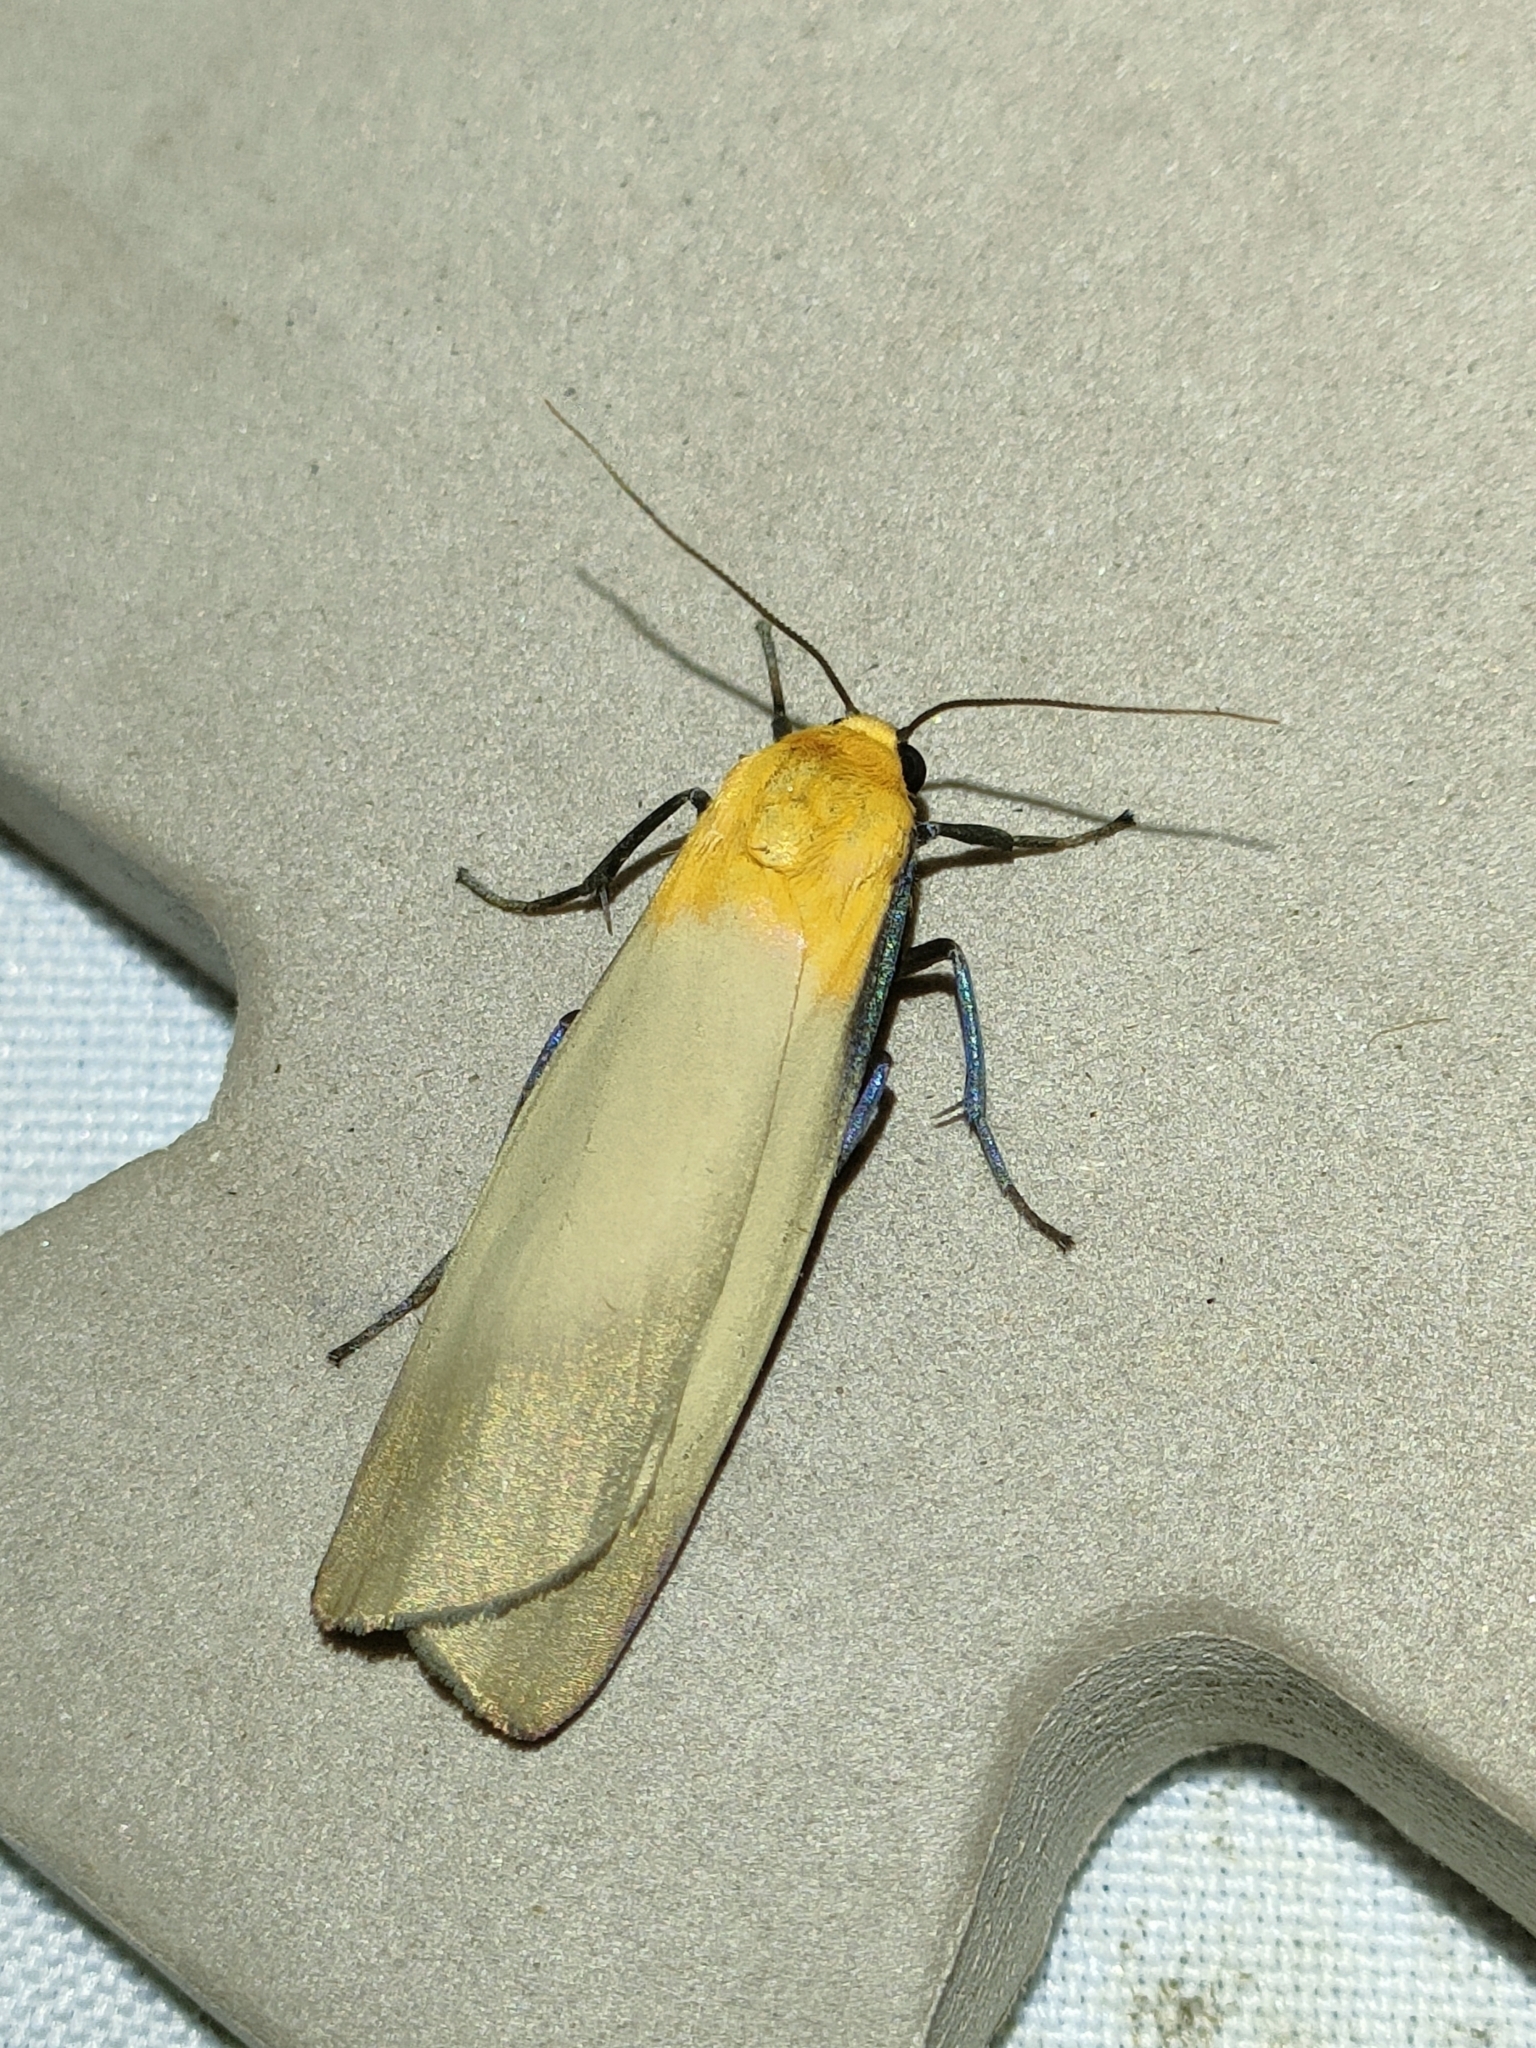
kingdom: Animalia
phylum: Arthropoda
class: Insecta
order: Lepidoptera
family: Erebidae
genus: Lithosia
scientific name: Lithosia quadra
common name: Four-spotted footman
